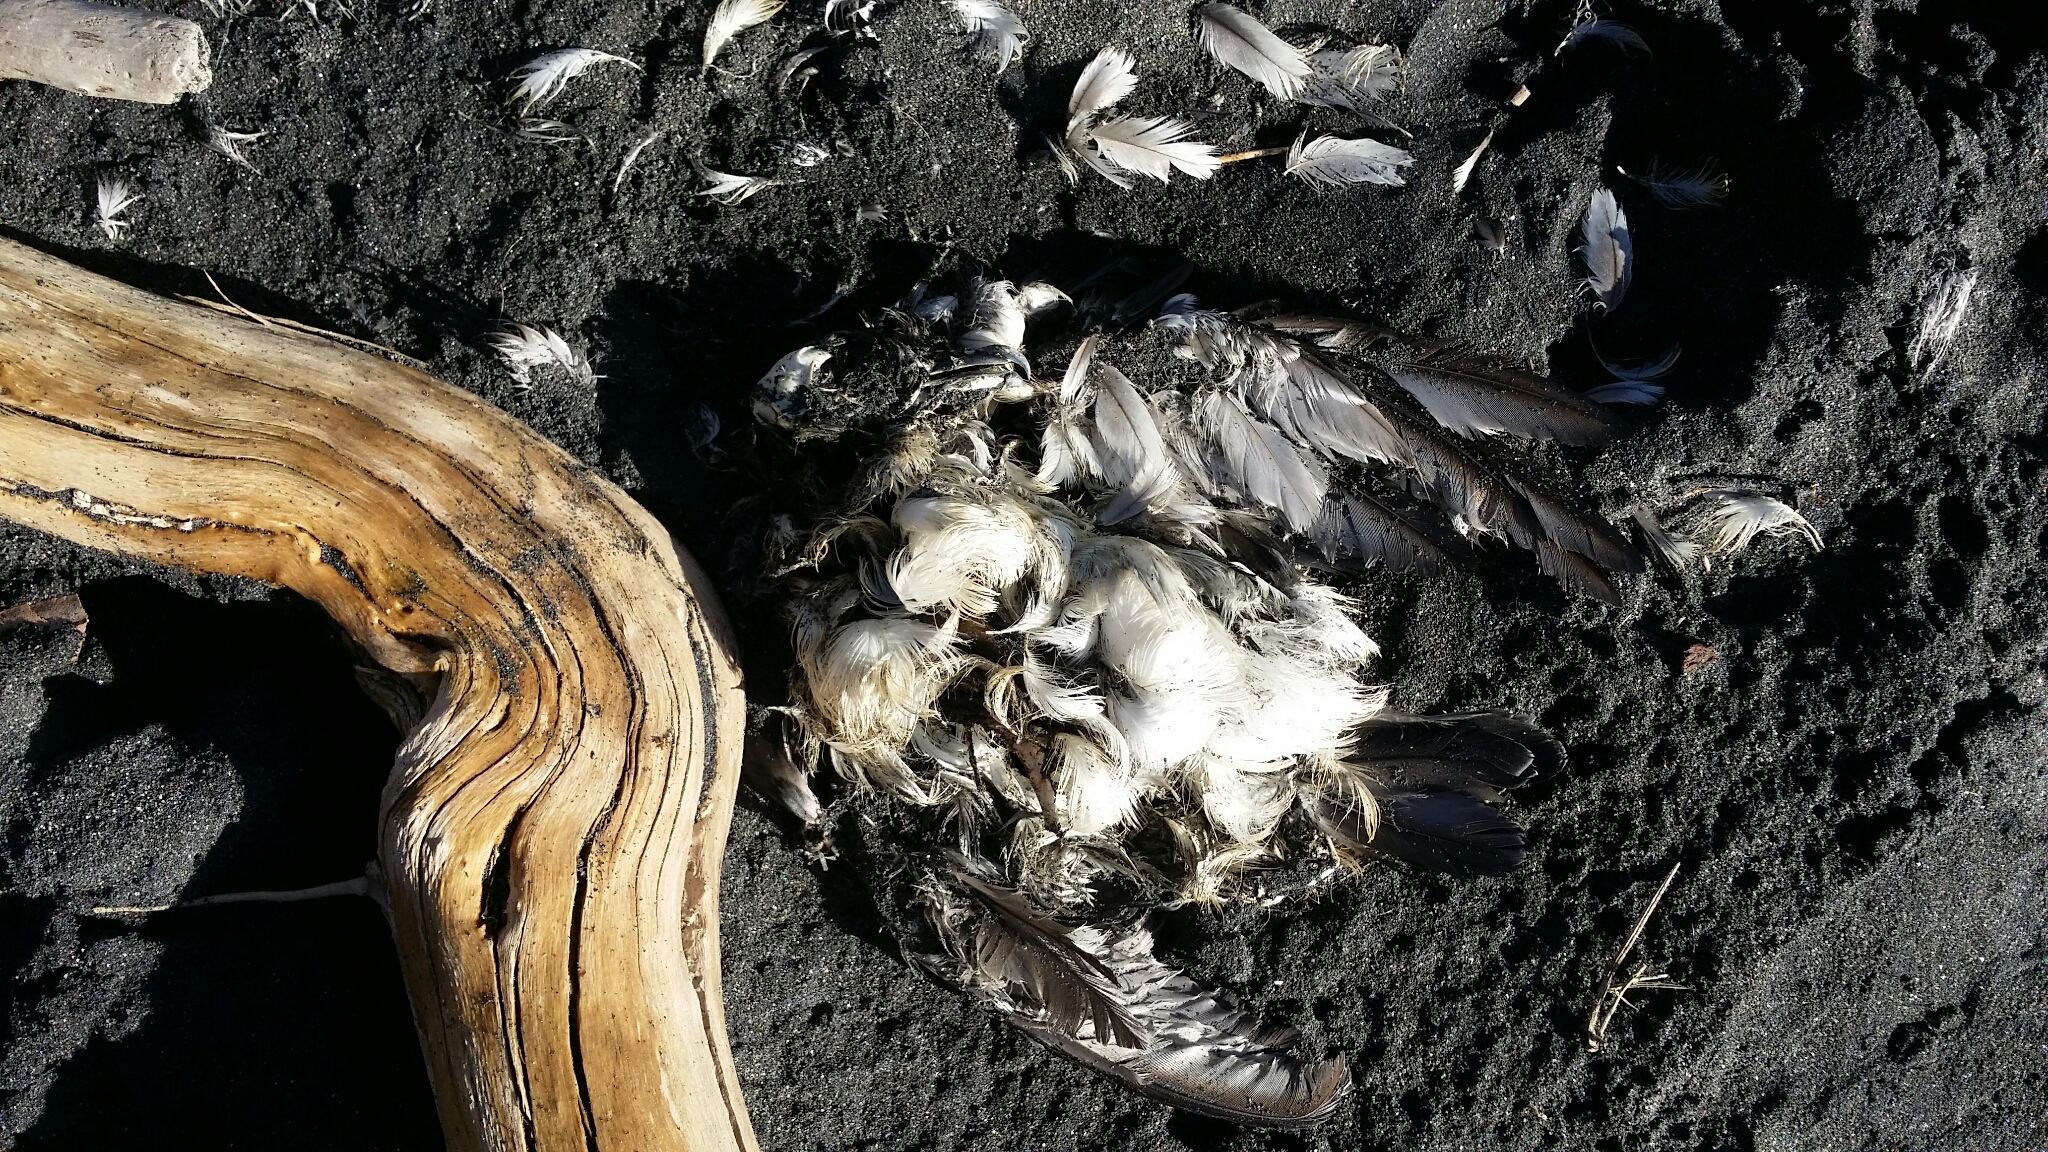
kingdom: Animalia
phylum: Chordata
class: Aves
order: Procellariiformes
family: Pelecanoididae
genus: Pelecanoides
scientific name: Pelecanoides urinatrix
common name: Common diving-petrel
